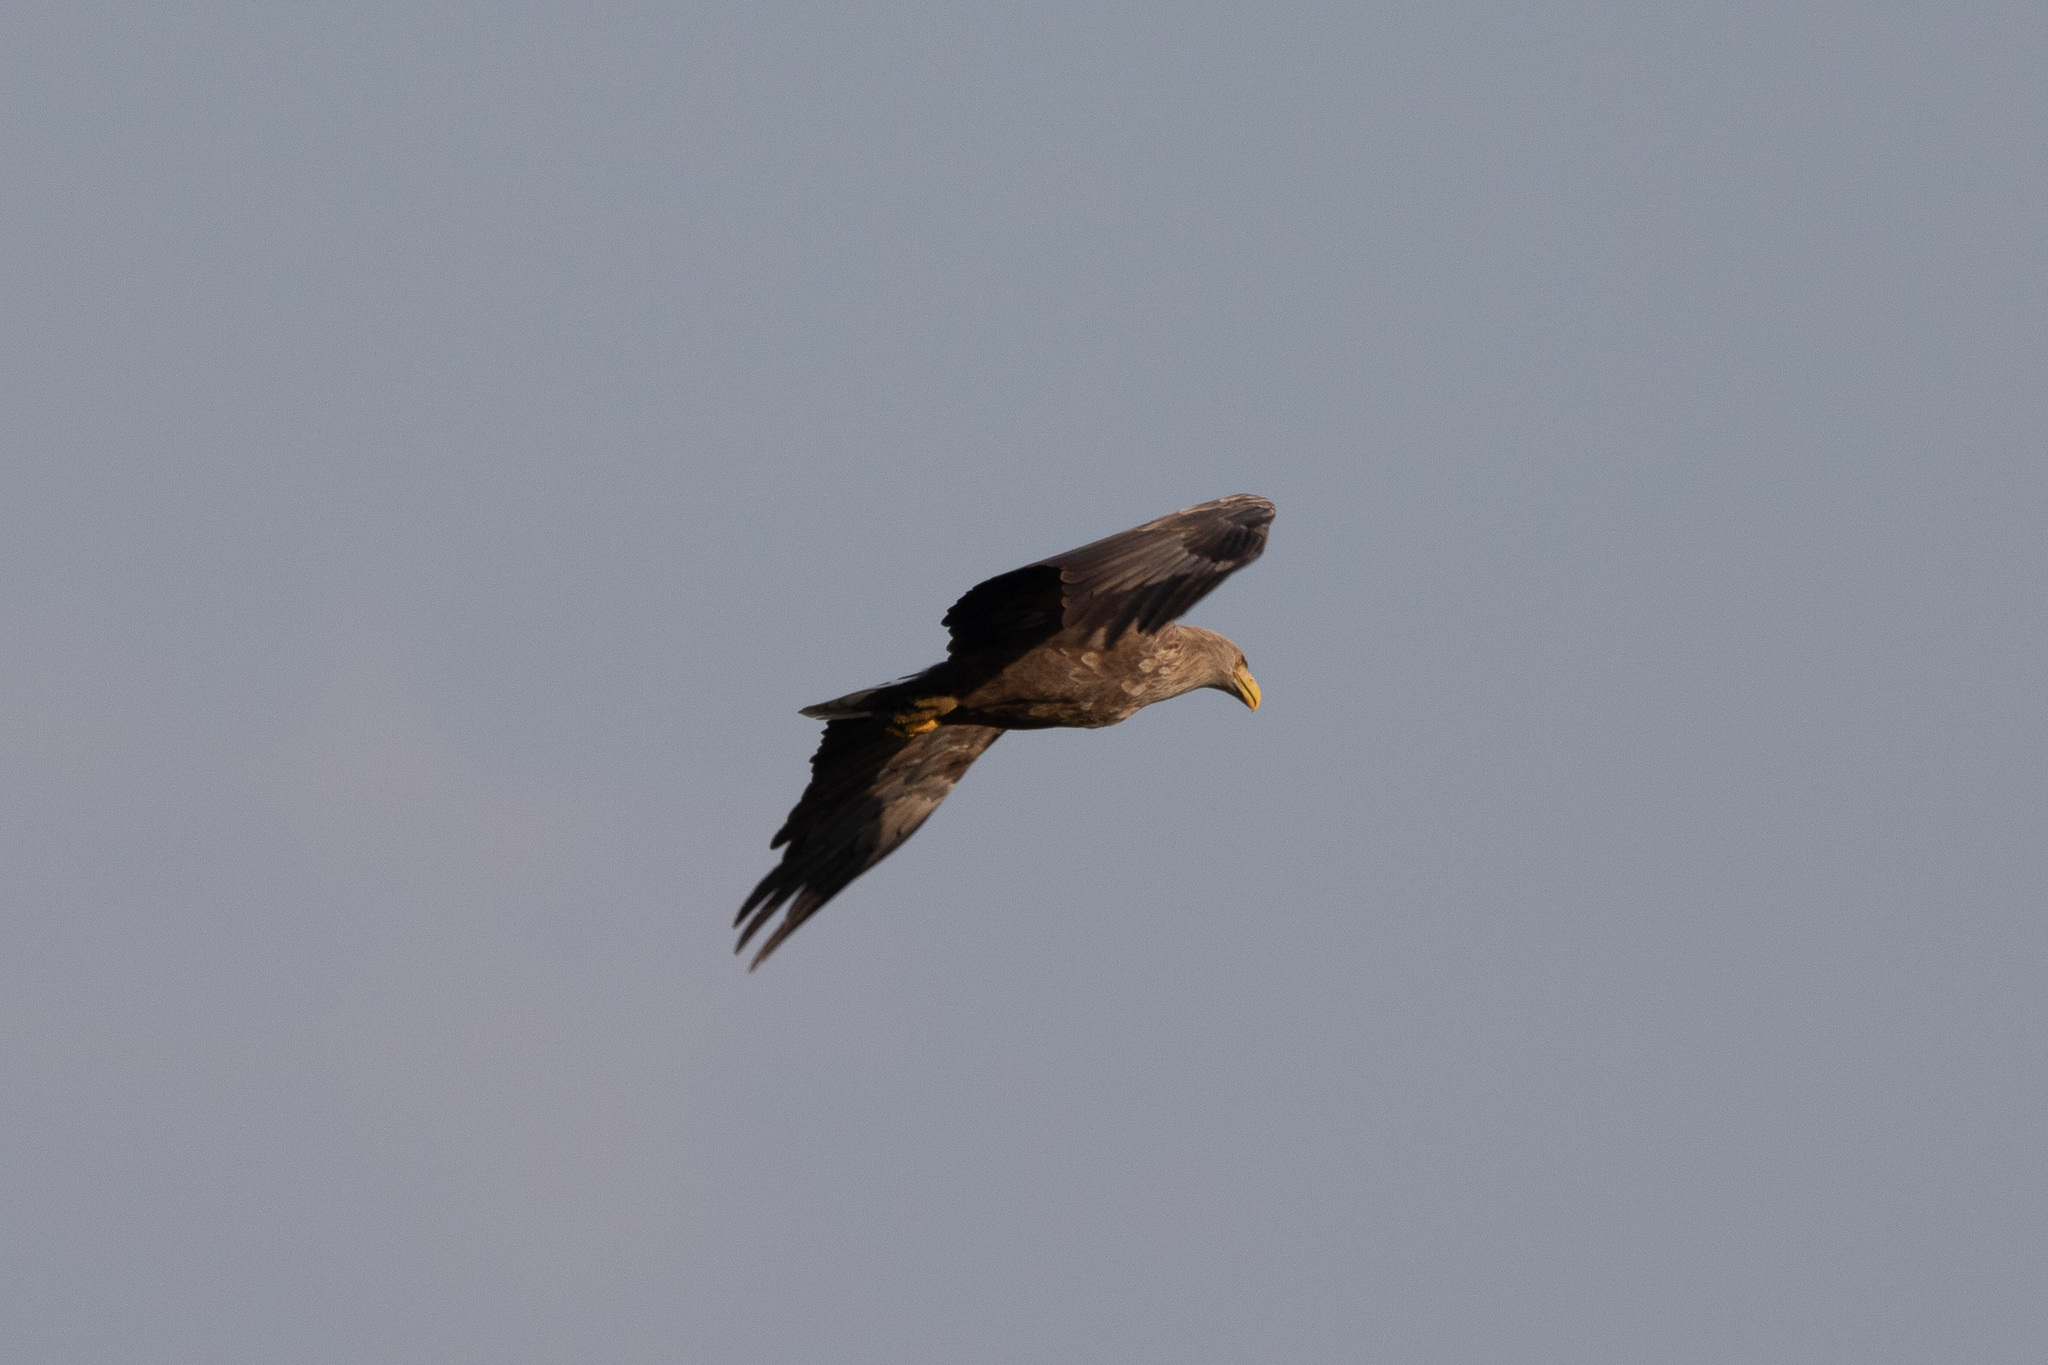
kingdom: Animalia
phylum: Chordata
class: Aves
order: Accipitriformes
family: Accipitridae
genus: Haliaeetus
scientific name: Haliaeetus albicilla
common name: White-tailed eagle
